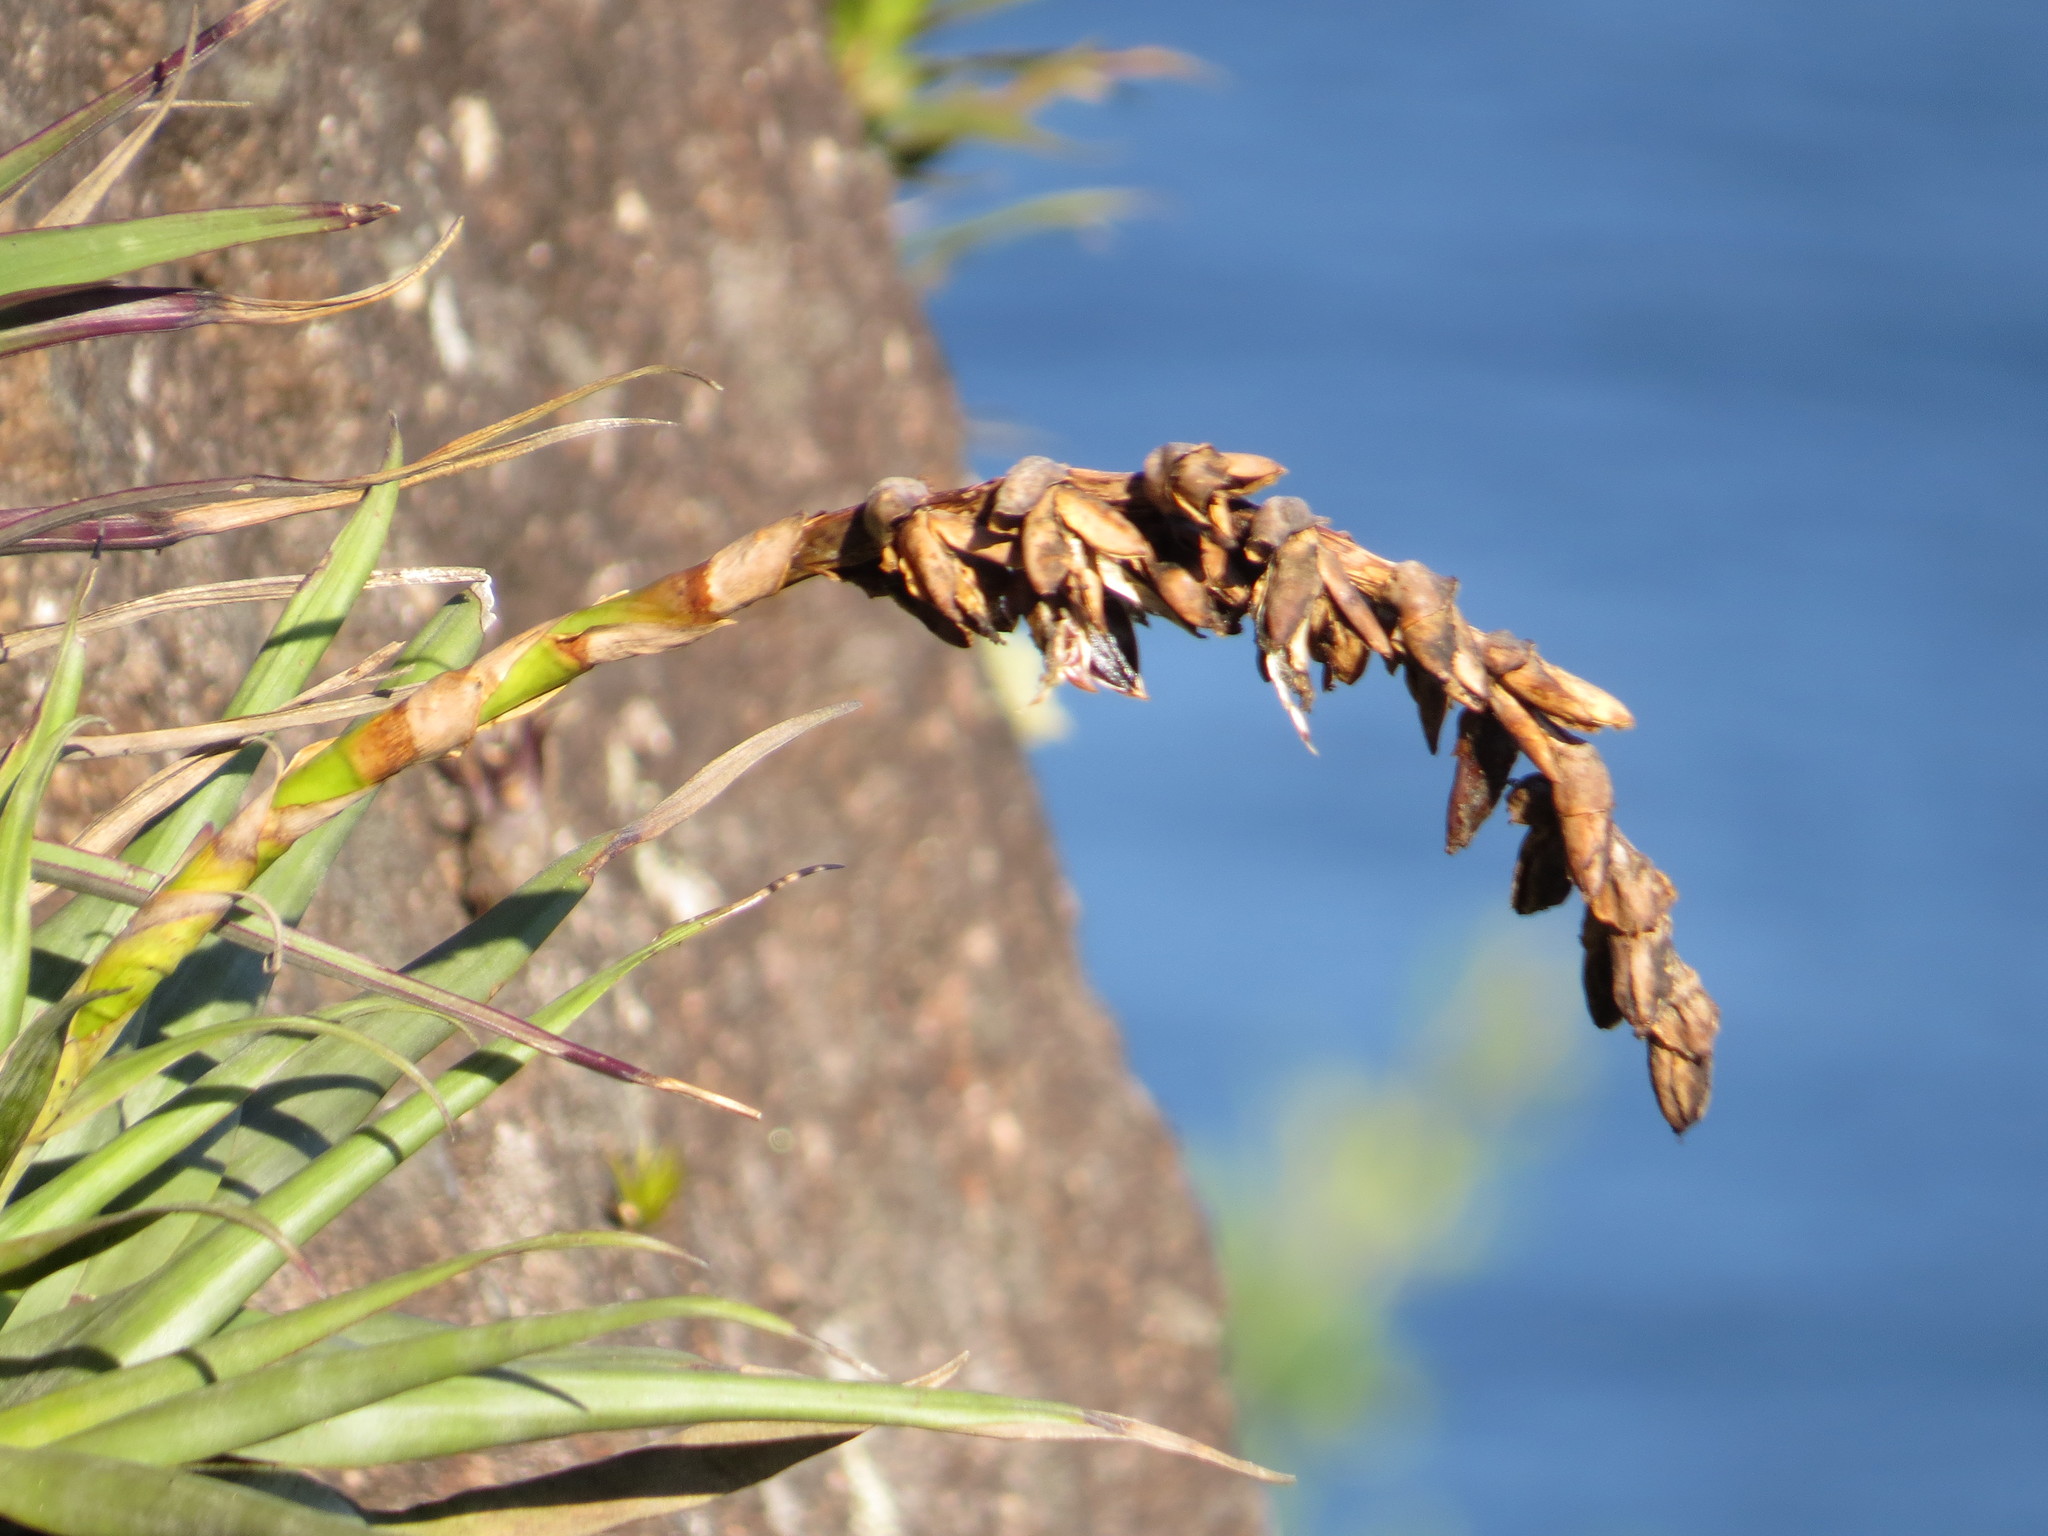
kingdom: Plantae
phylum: Tracheophyta
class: Liliopsida
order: Poales
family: Bromeliaceae
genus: Stigmatodon
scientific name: Stigmatodon goniorachis
